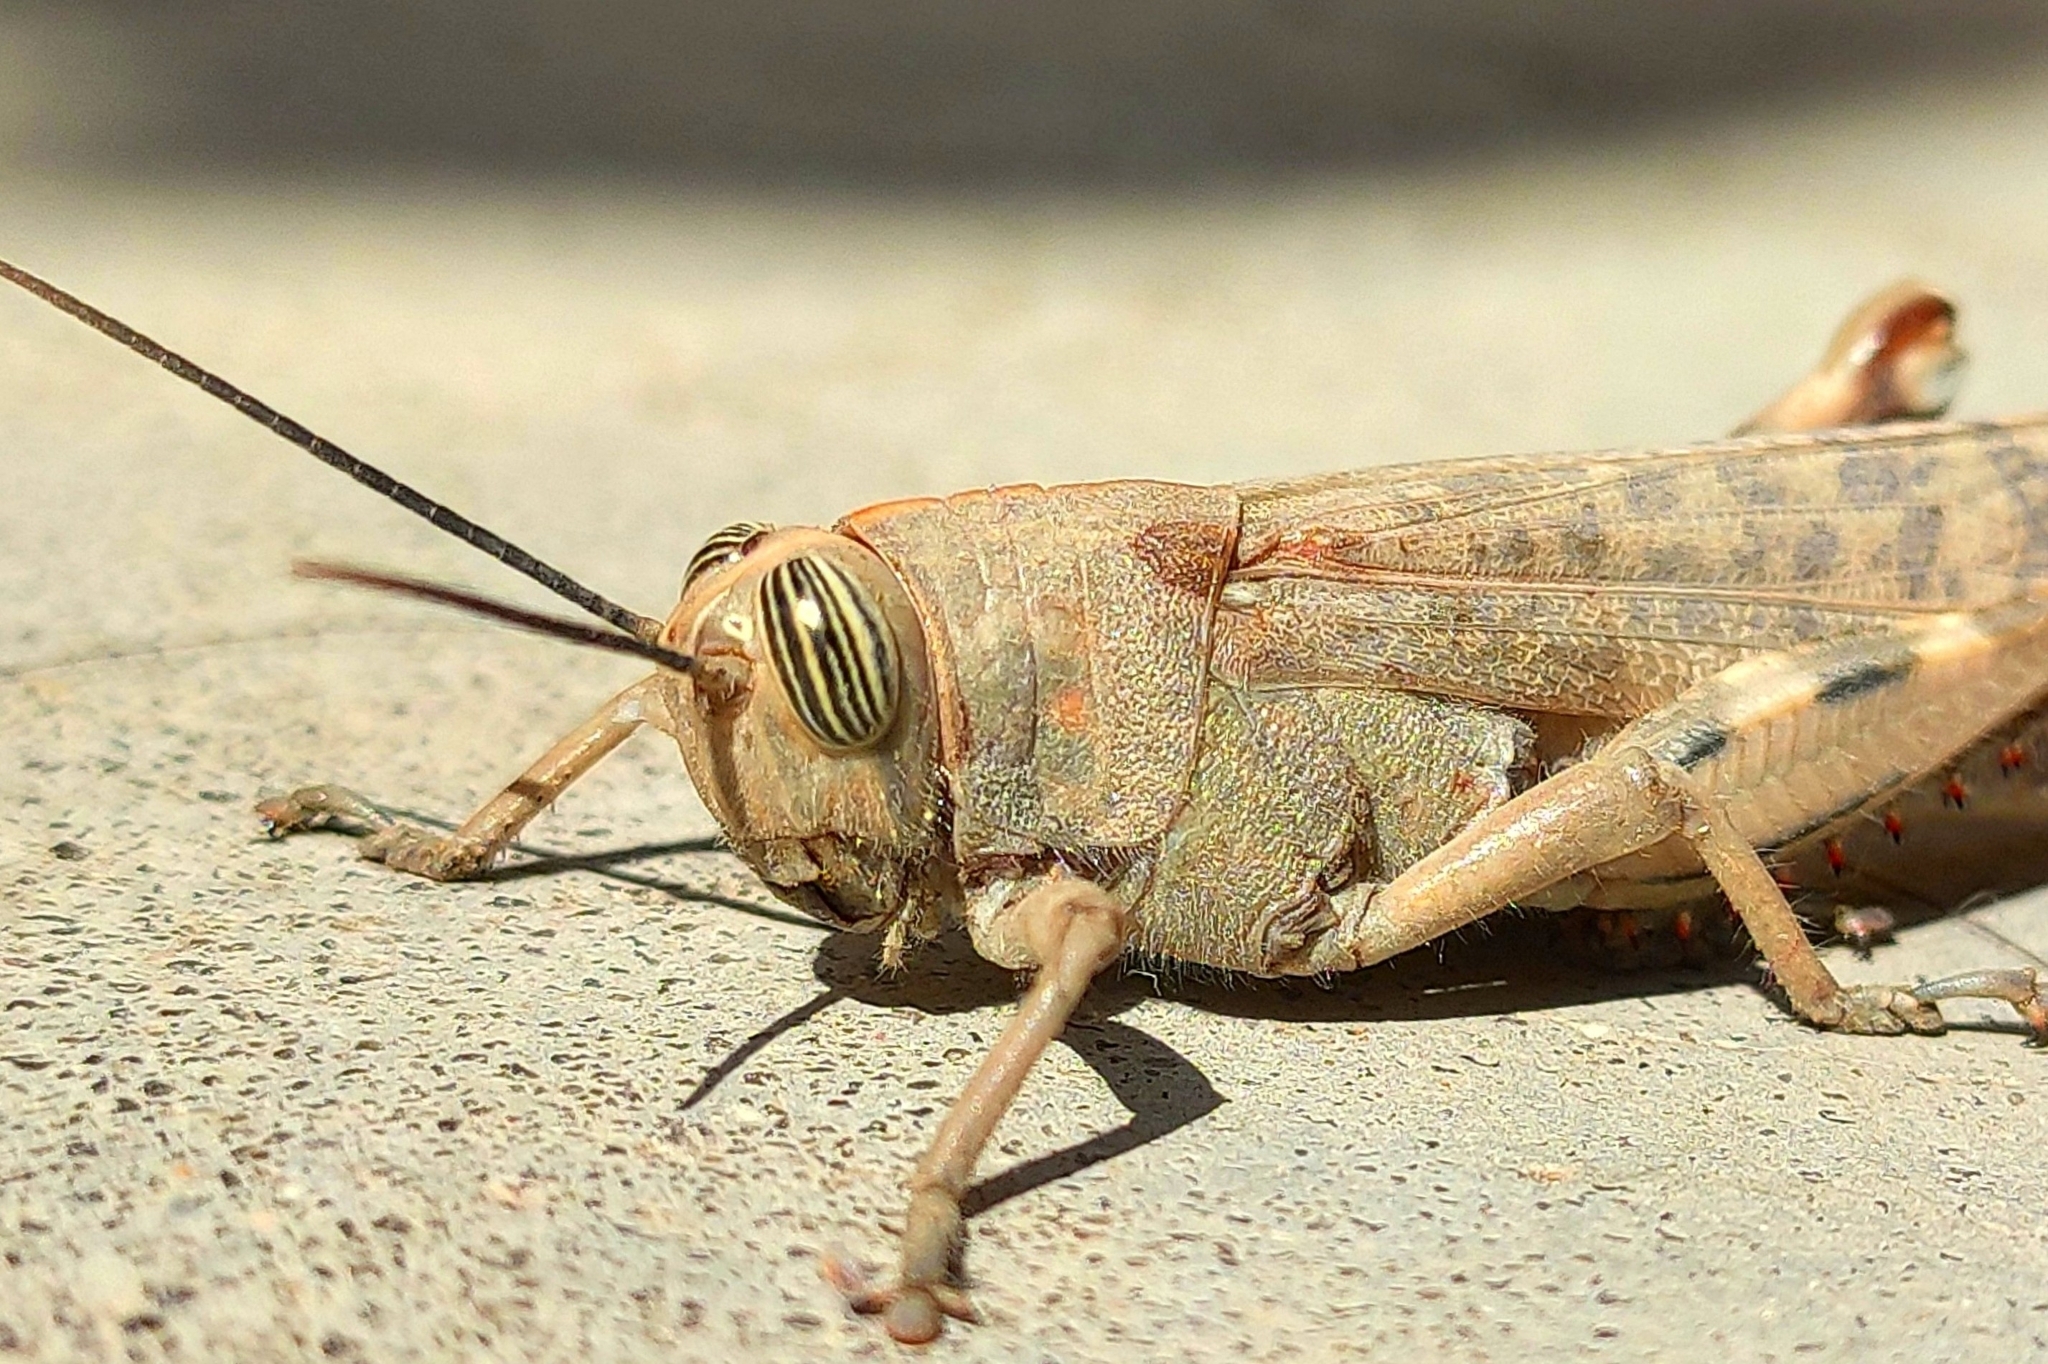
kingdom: Animalia
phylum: Arthropoda
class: Insecta
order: Orthoptera
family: Acrididae
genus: Anacridium
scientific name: Anacridium rubrispinum
